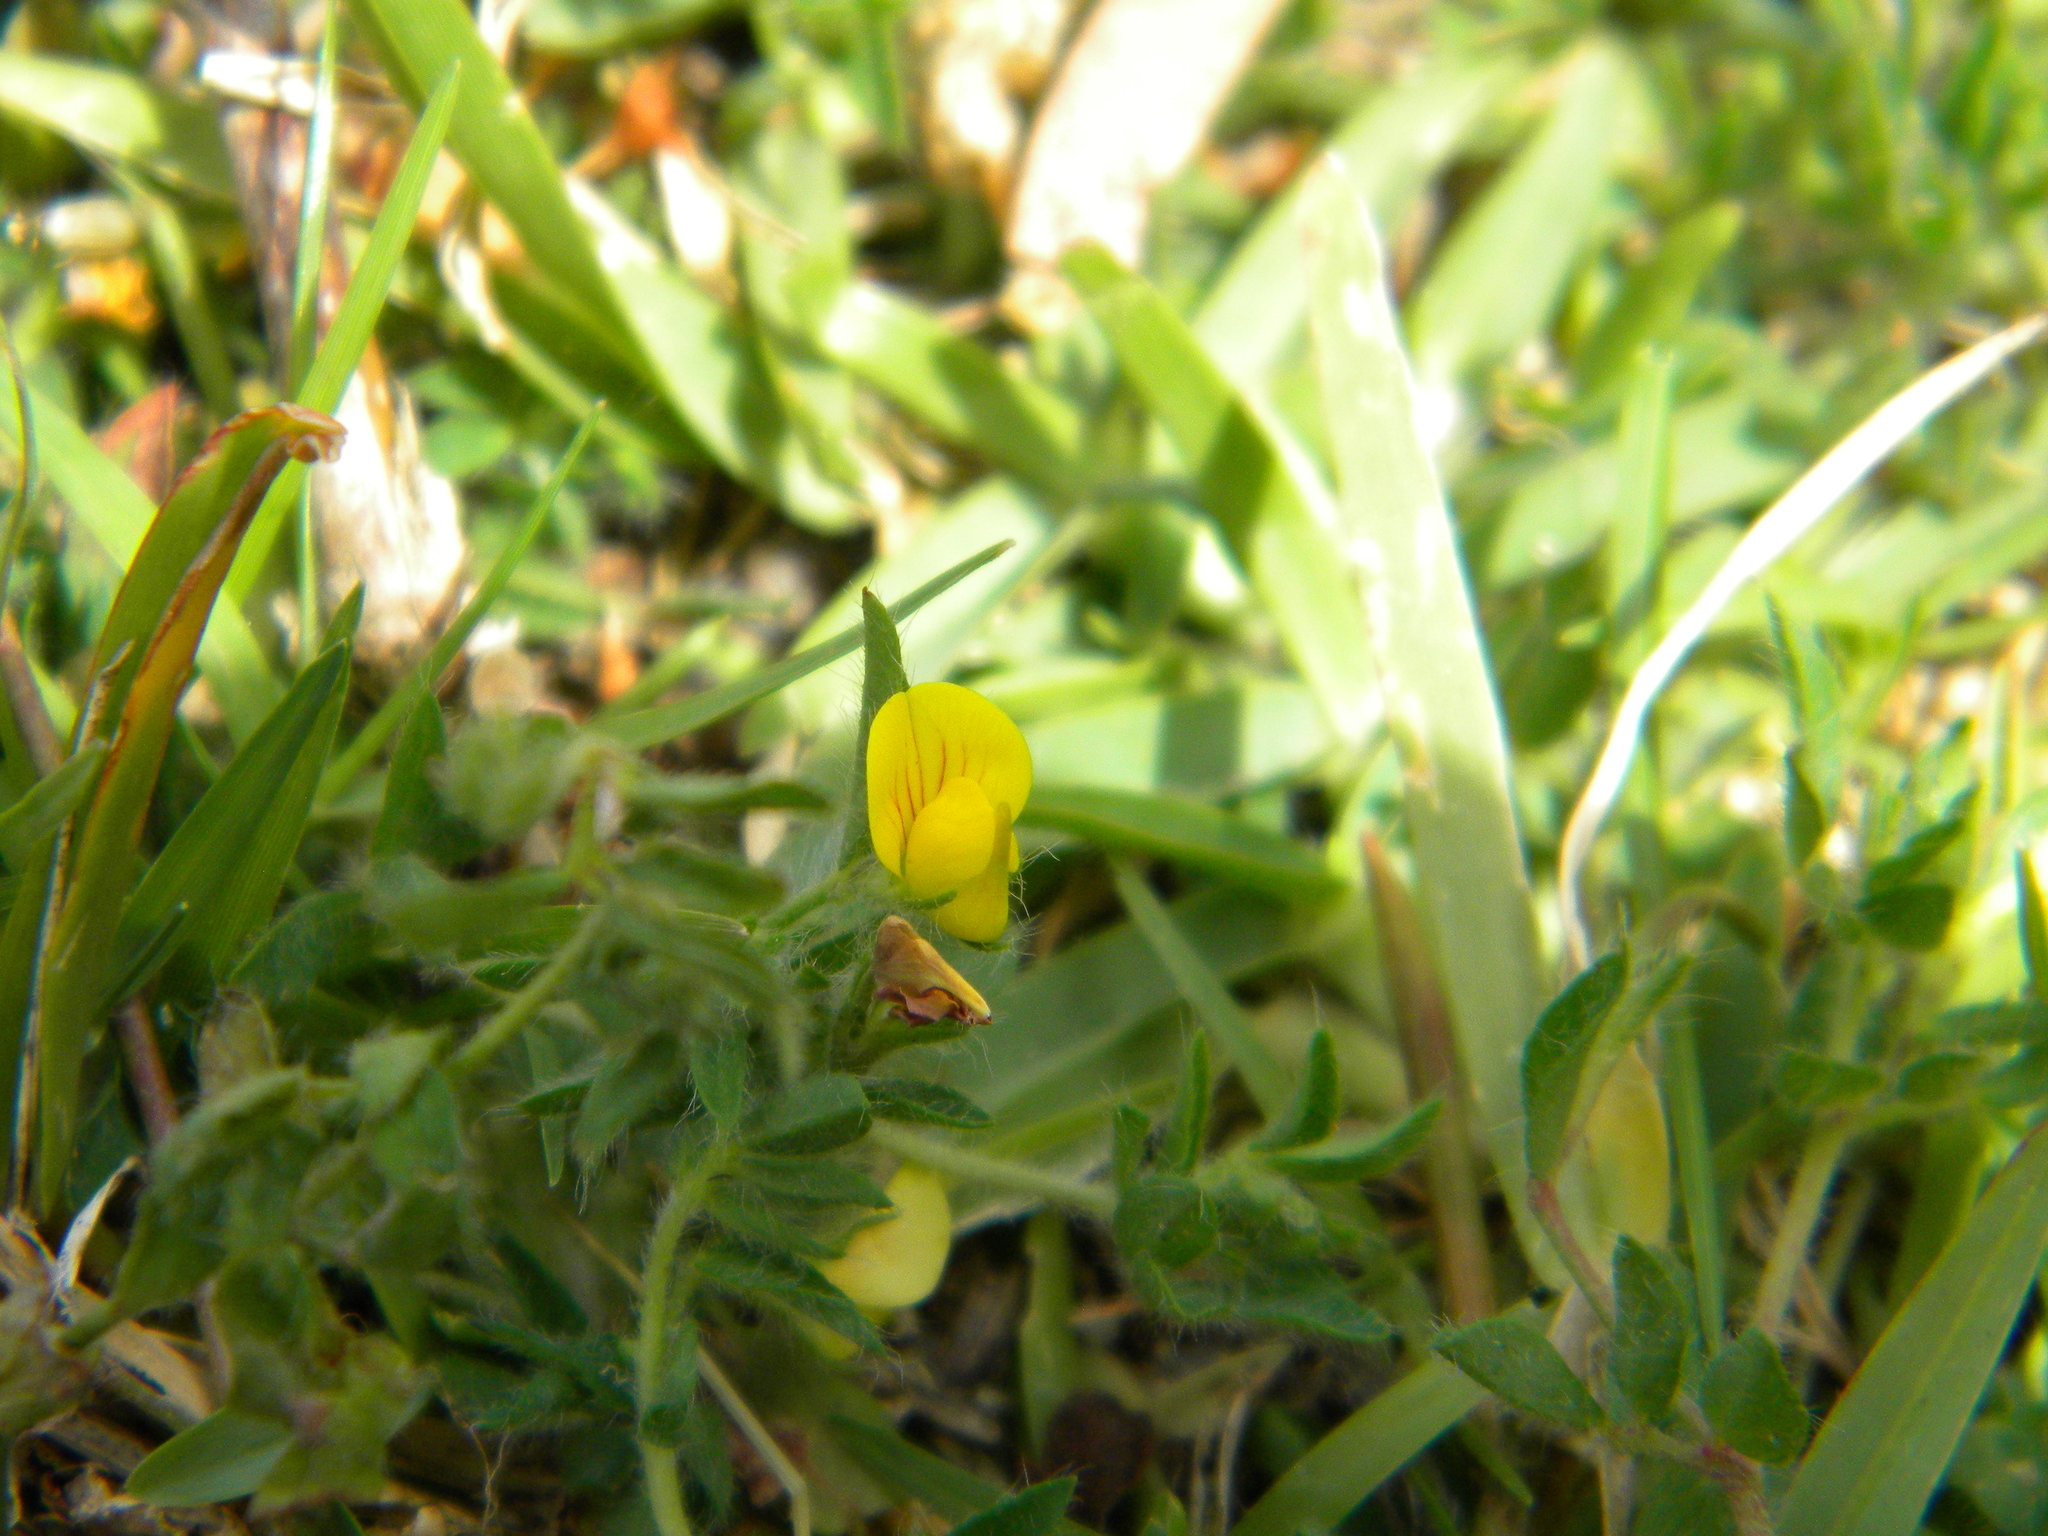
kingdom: Plantae
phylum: Tracheophyta
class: Magnoliopsida
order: Fabales
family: Fabaceae
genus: Lotus
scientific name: Lotus subbiflorus
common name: Hairy bird's-foot trefoil
